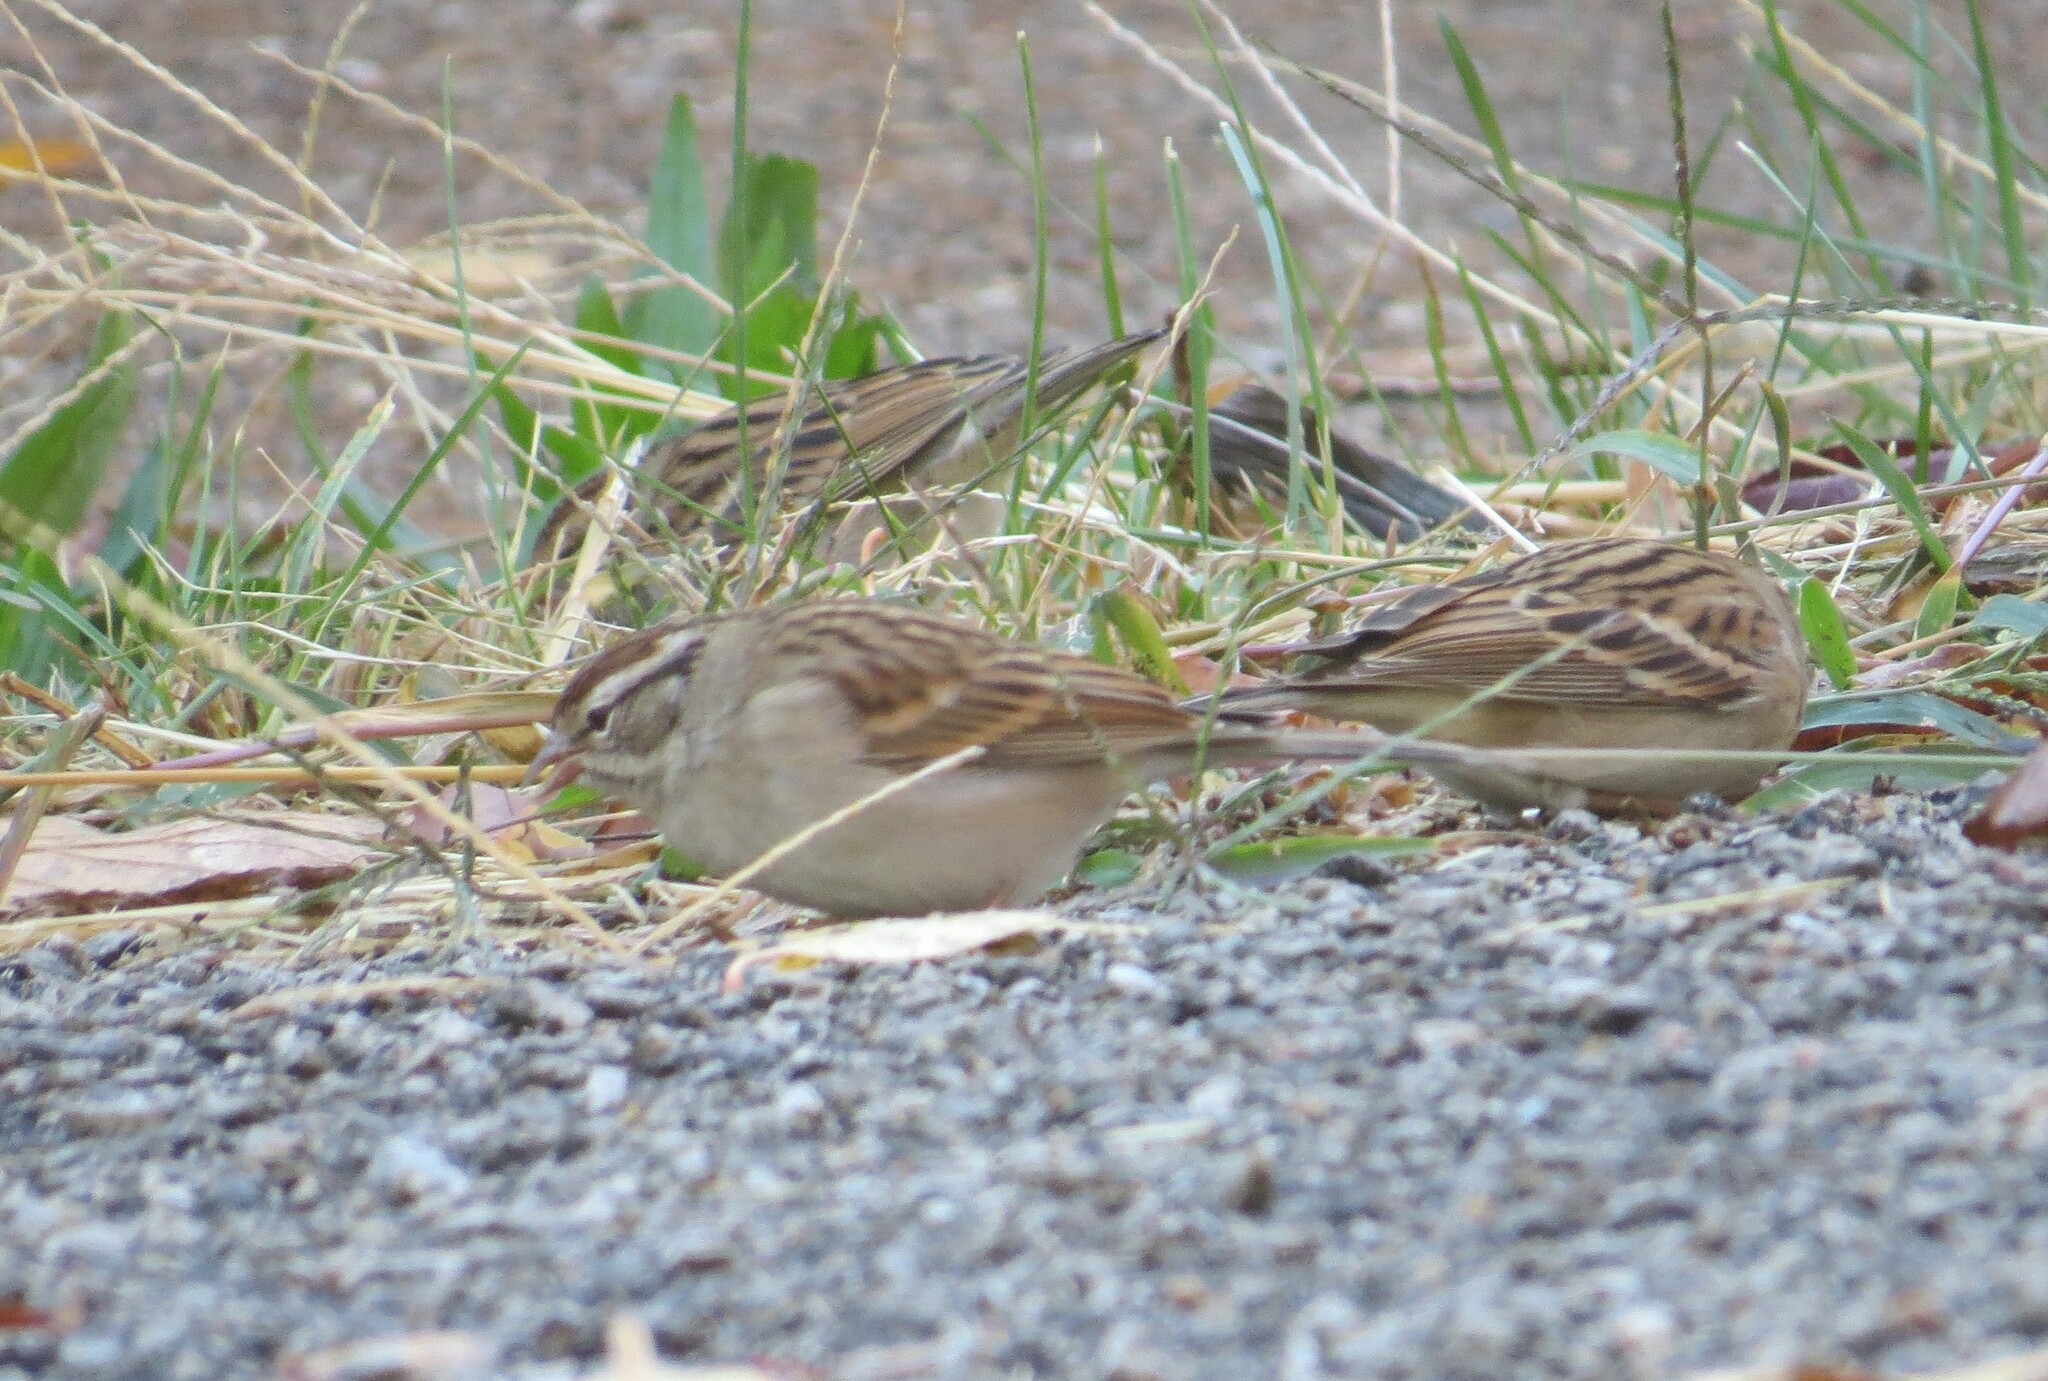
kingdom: Animalia
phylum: Chordata
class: Aves
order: Passeriformes
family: Passerellidae
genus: Spizella
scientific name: Spizella passerina
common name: Chipping sparrow
